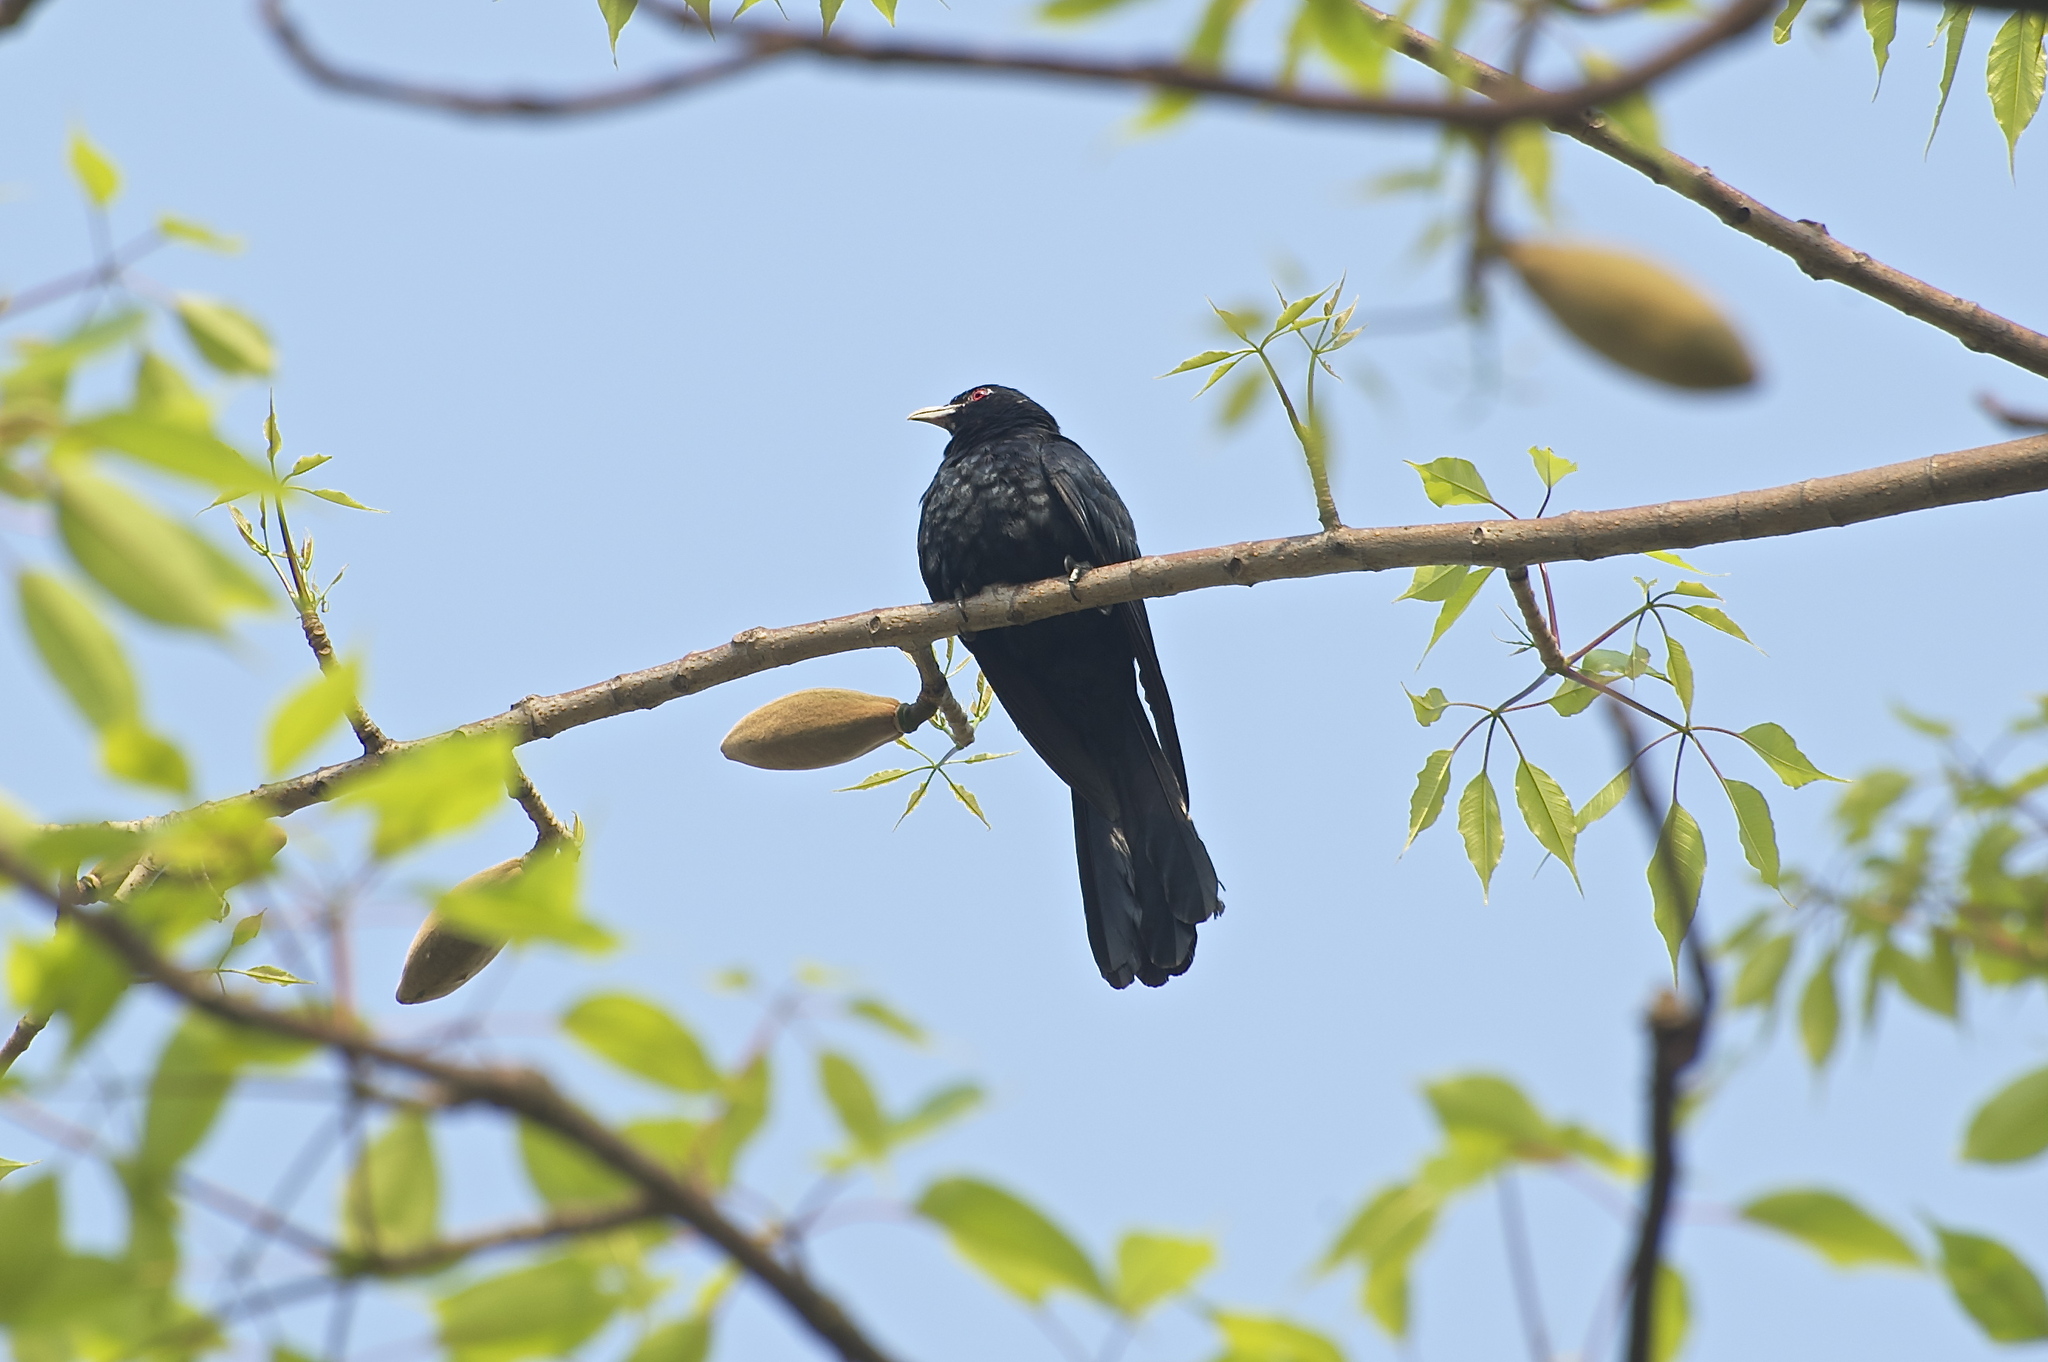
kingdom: Animalia
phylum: Chordata
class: Aves
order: Cuculiformes
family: Cuculidae
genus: Eudynamys
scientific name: Eudynamys scolopaceus
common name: Asian koel
